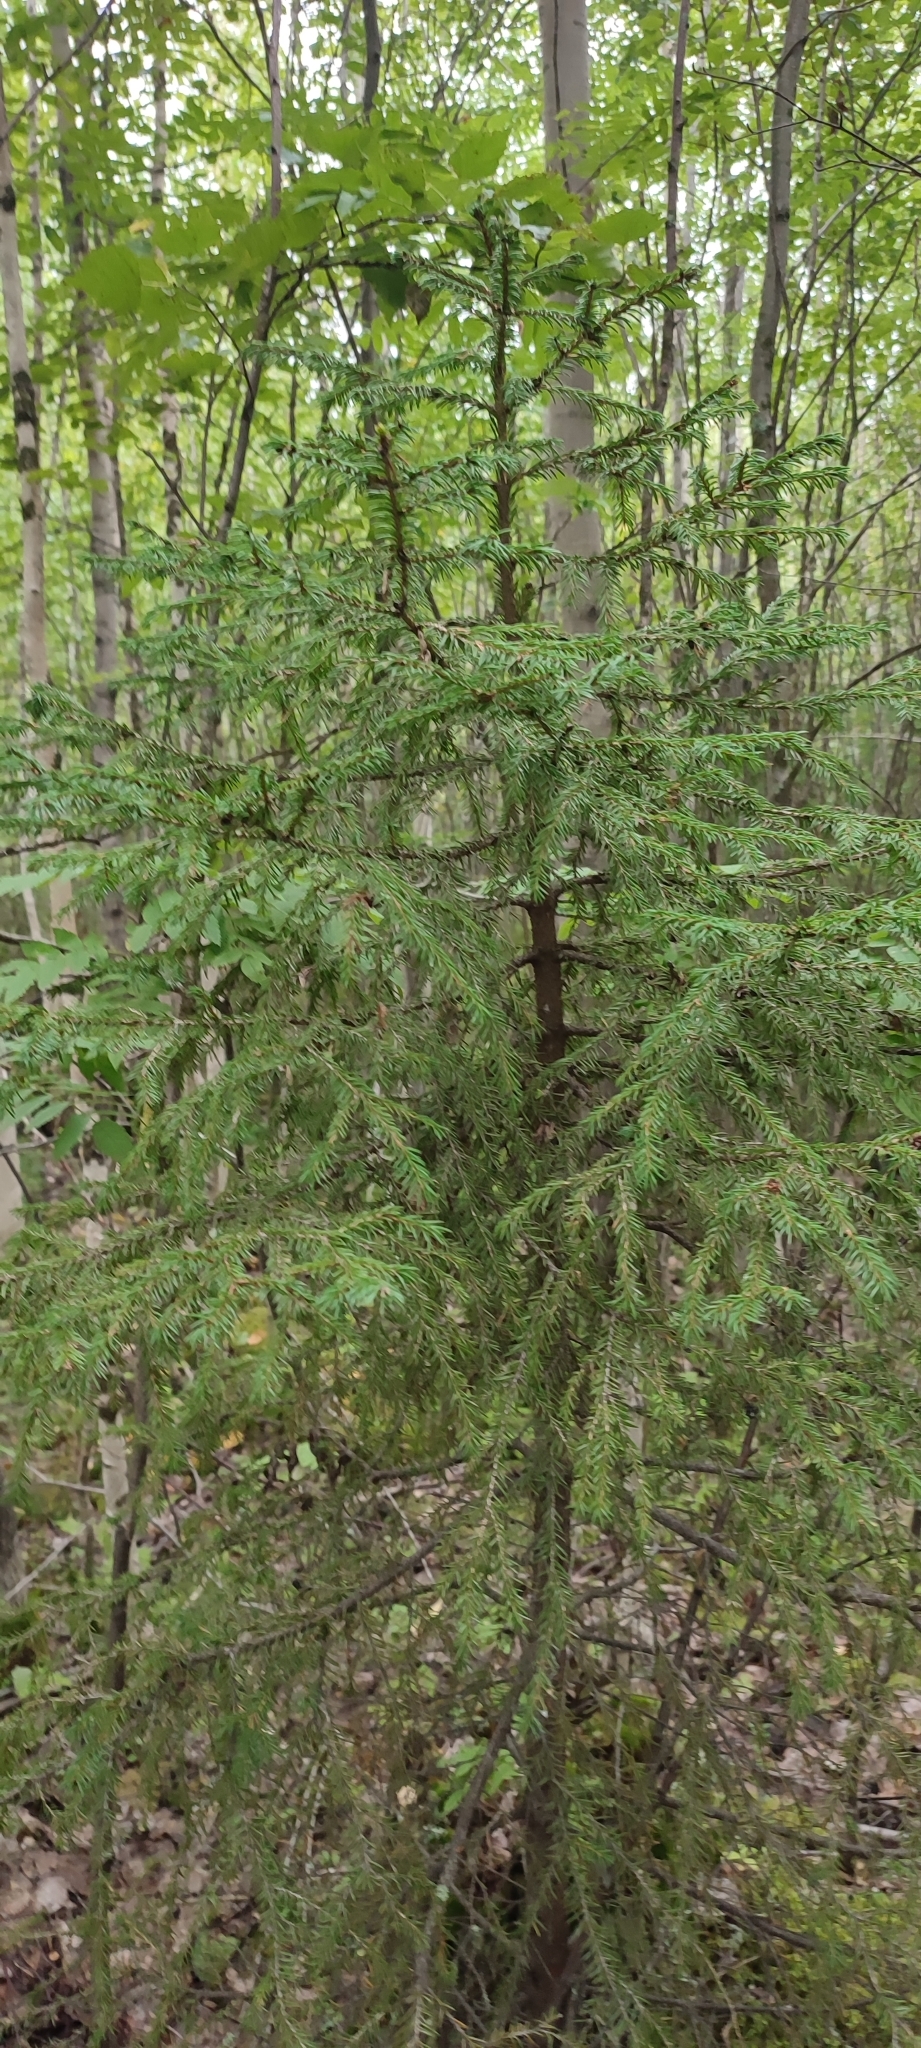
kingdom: Plantae
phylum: Tracheophyta
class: Pinopsida
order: Pinales
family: Pinaceae
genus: Picea
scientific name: Picea obovata
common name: Siberian spruce
